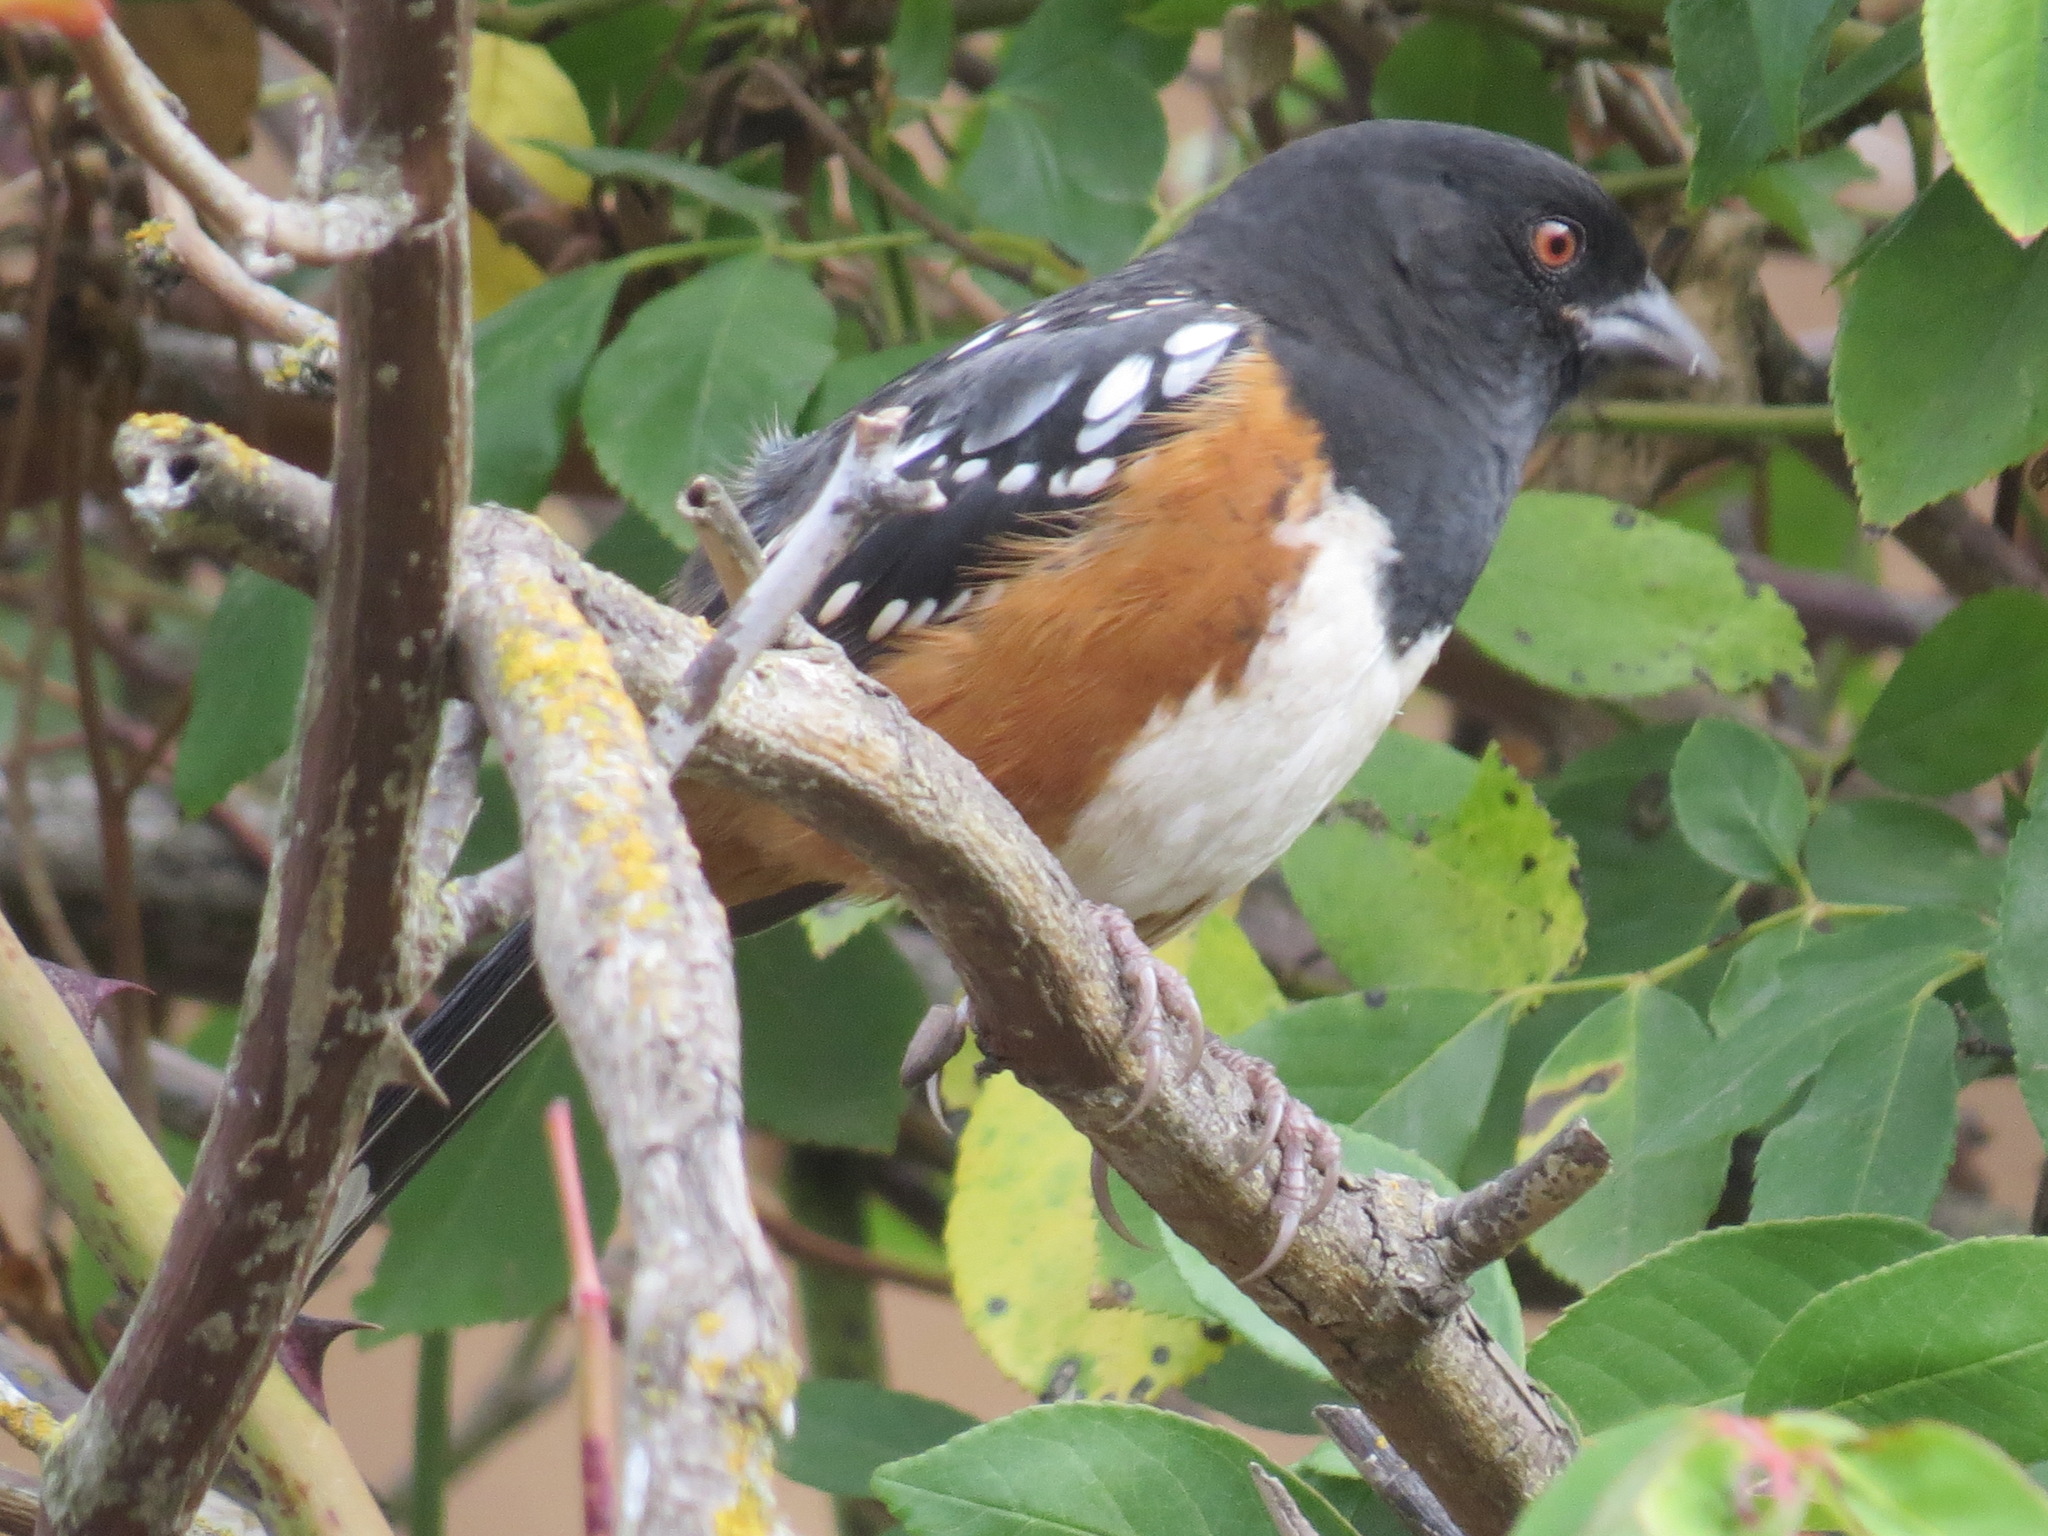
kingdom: Animalia
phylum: Chordata
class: Aves
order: Passeriformes
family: Passerellidae
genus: Pipilo
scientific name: Pipilo maculatus
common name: Spotted towhee
